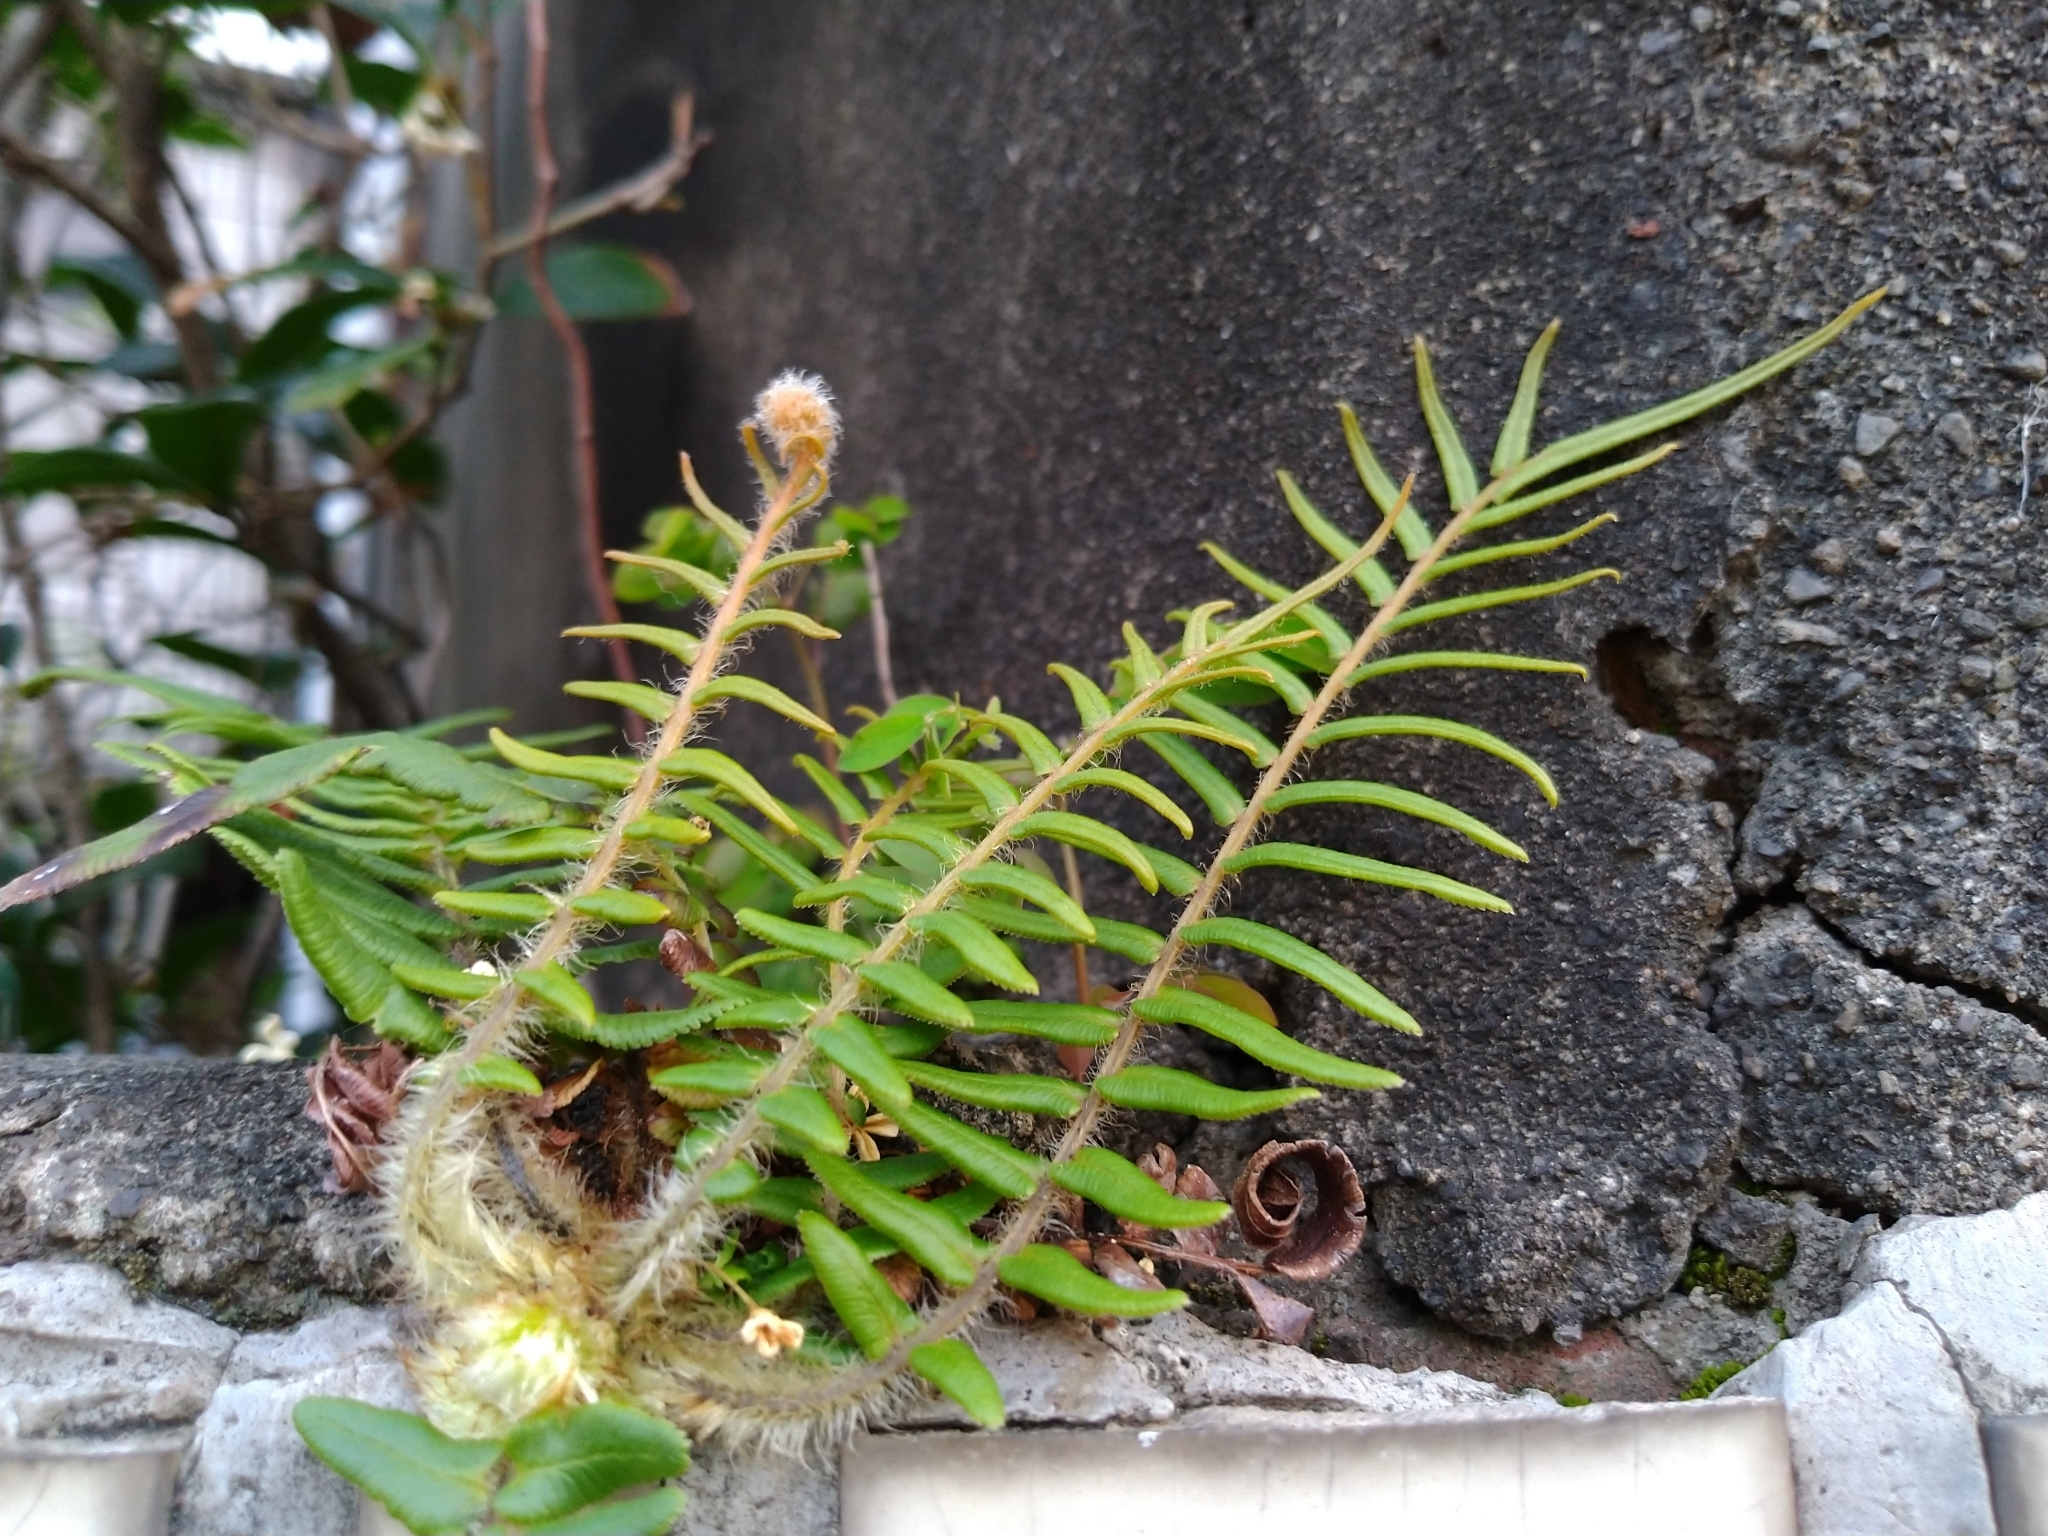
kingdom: Plantae
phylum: Tracheophyta
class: Polypodiopsida
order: Polypodiales
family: Pteridaceae
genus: Pteris
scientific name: Pteris vittata
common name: Ladder brake
